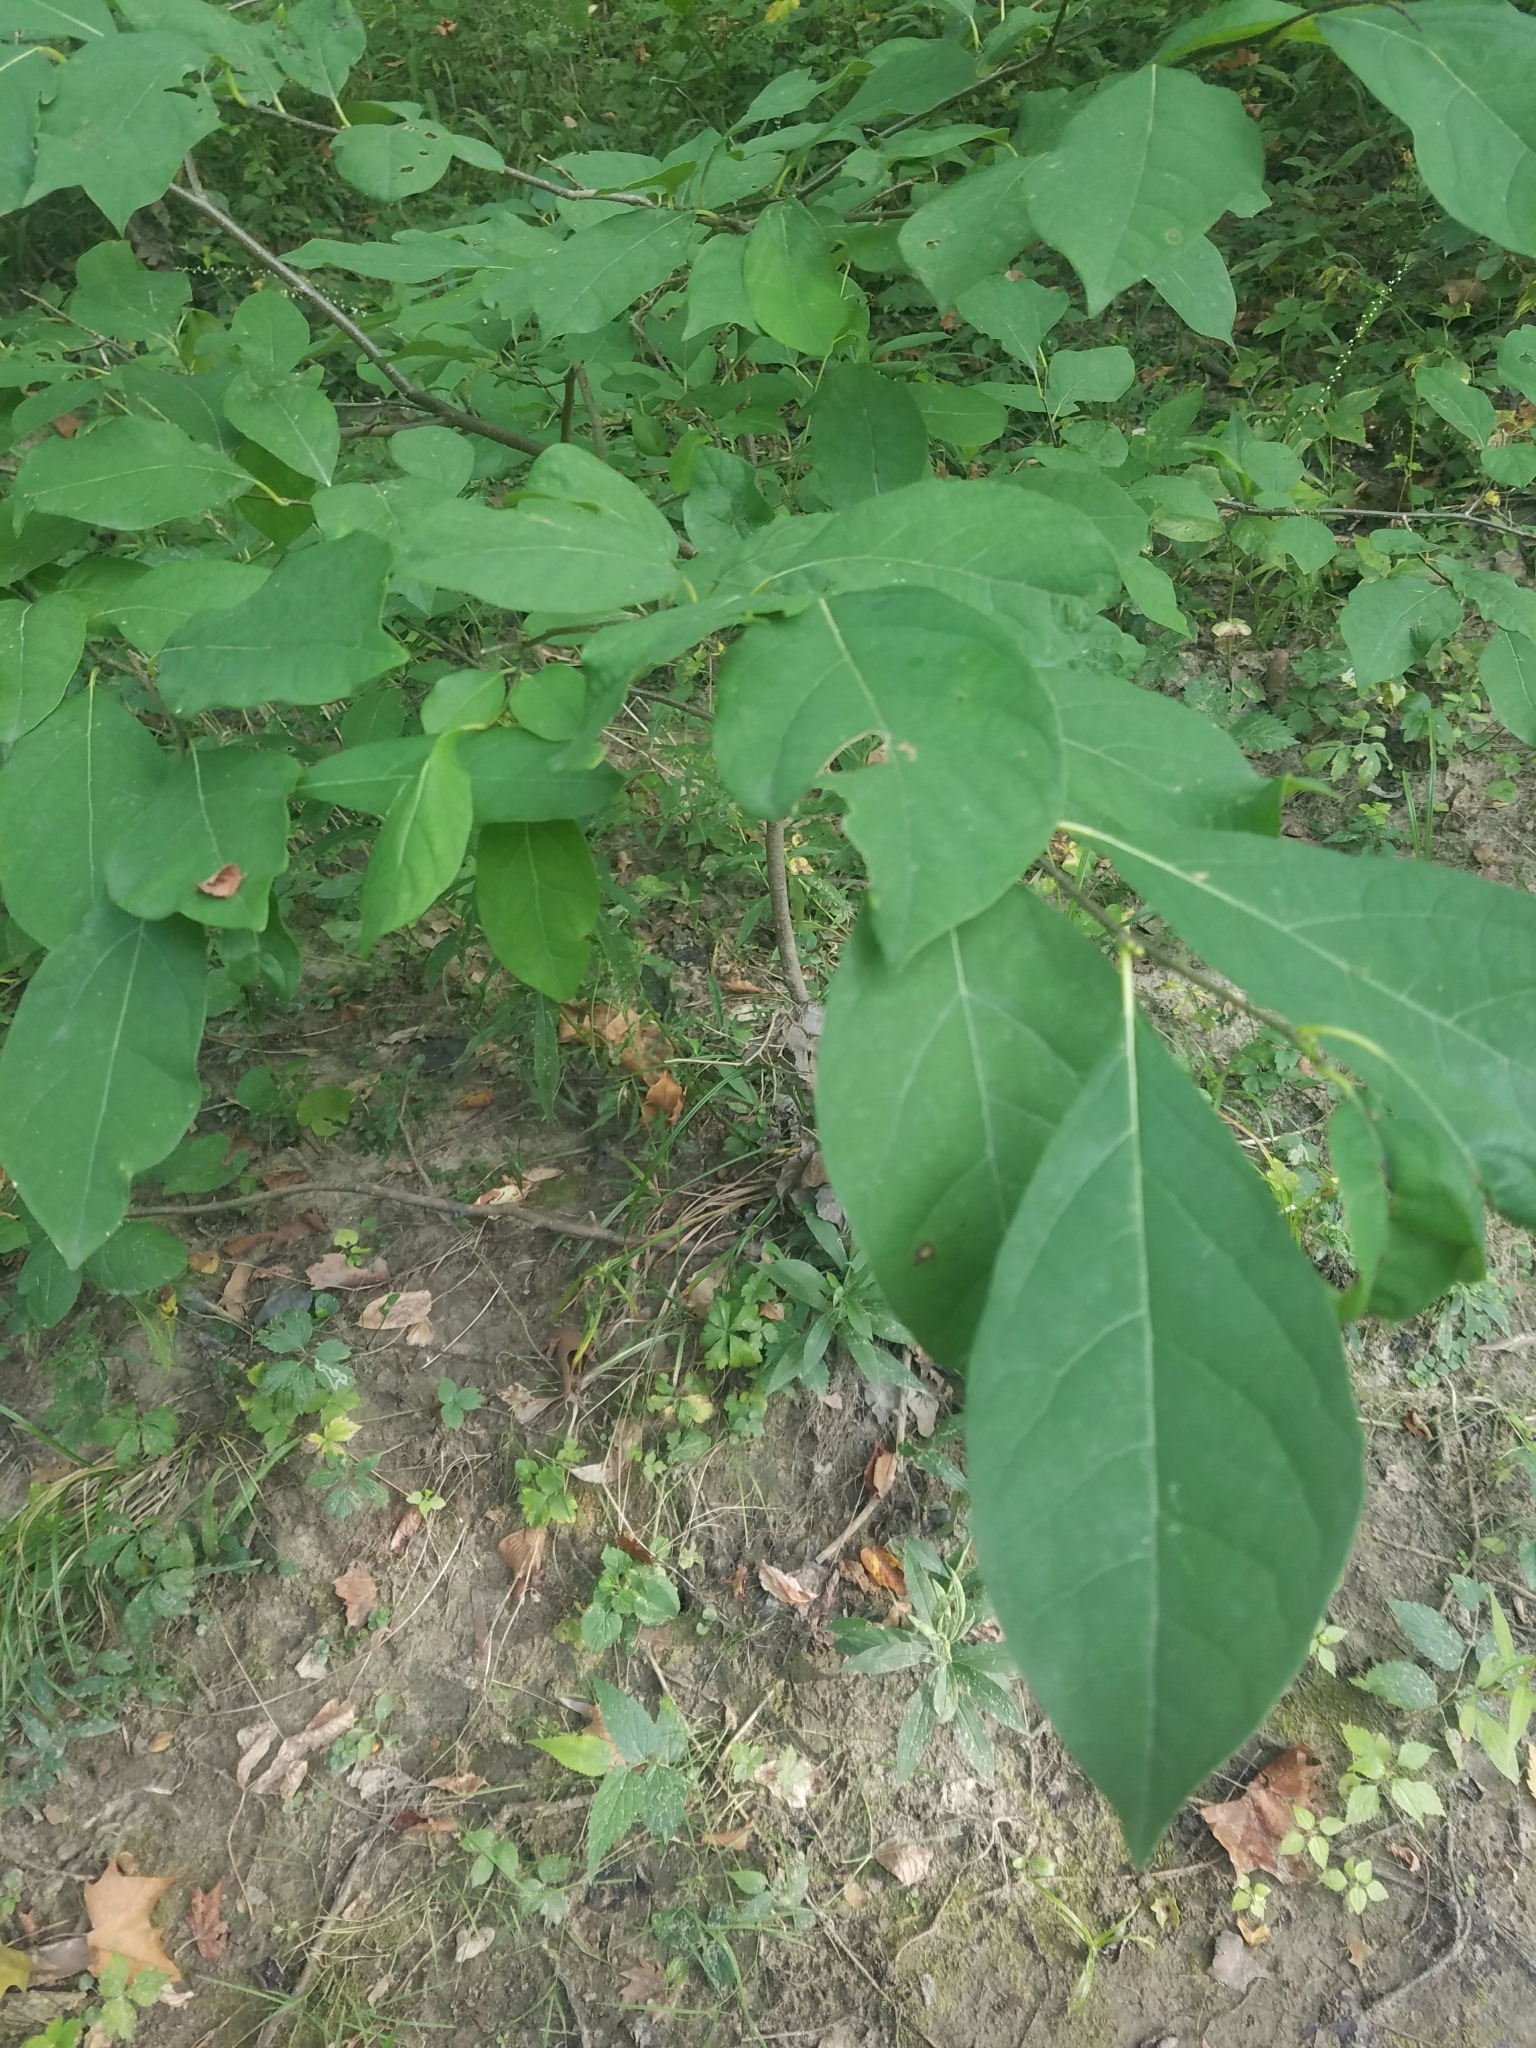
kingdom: Plantae
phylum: Tracheophyta
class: Magnoliopsida
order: Laurales
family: Lauraceae
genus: Lindera
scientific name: Lindera benzoin
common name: Spicebush
